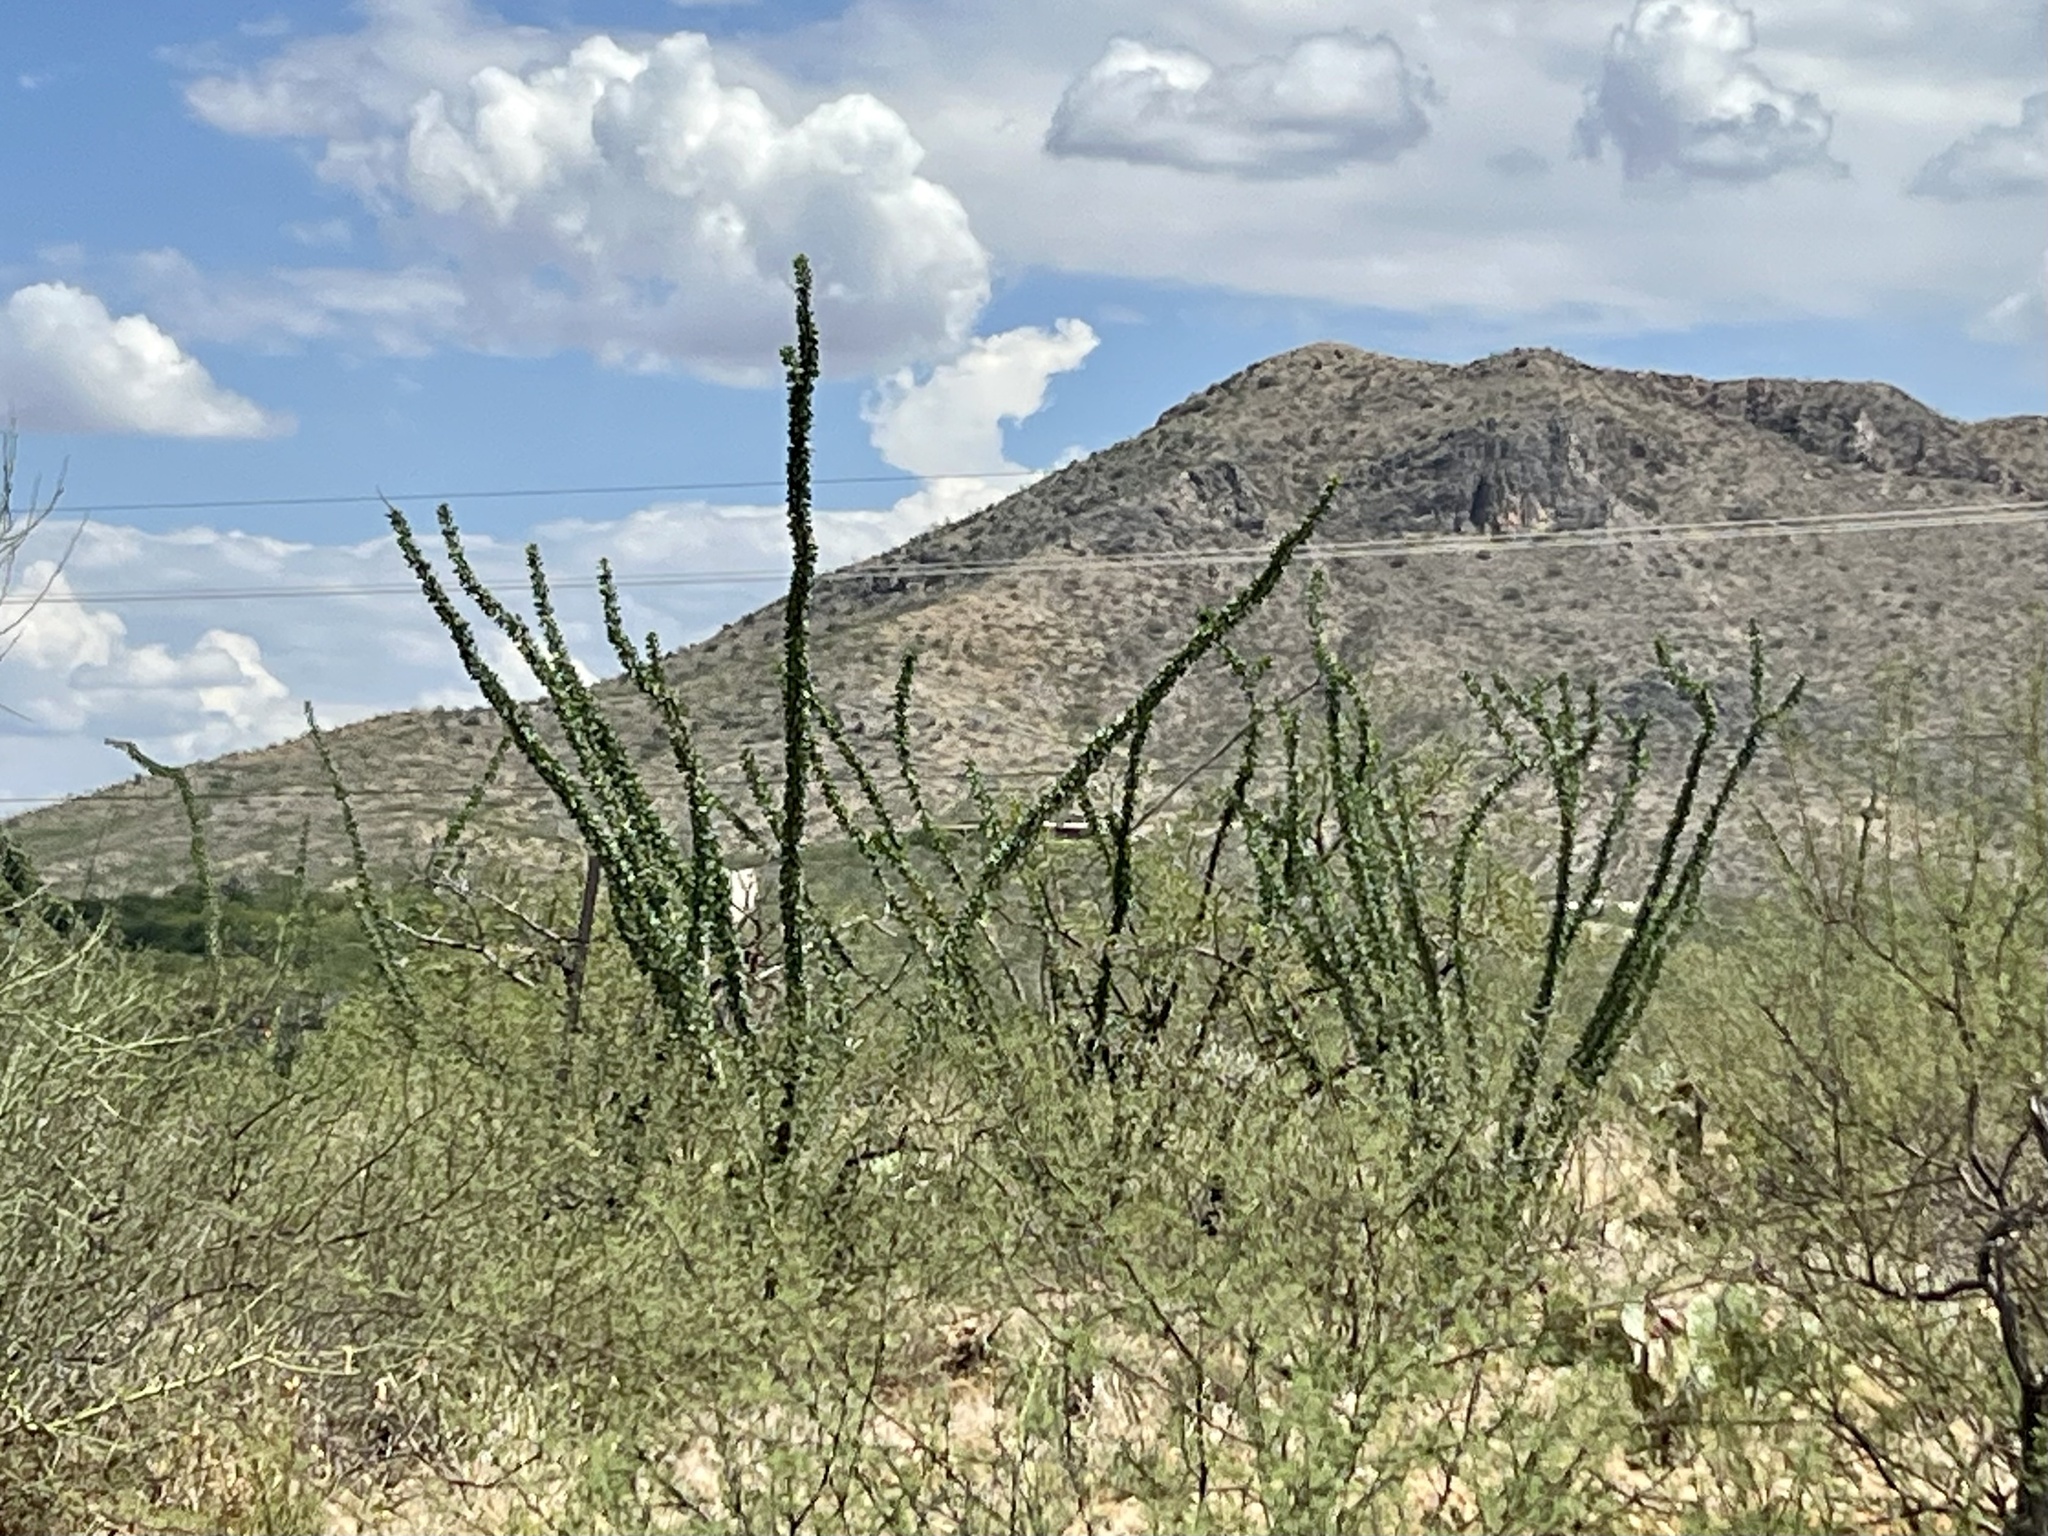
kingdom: Plantae
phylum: Tracheophyta
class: Magnoliopsida
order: Ericales
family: Fouquieriaceae
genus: Fouquieria
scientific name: Fouquieria splendens
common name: Vine-cactus
